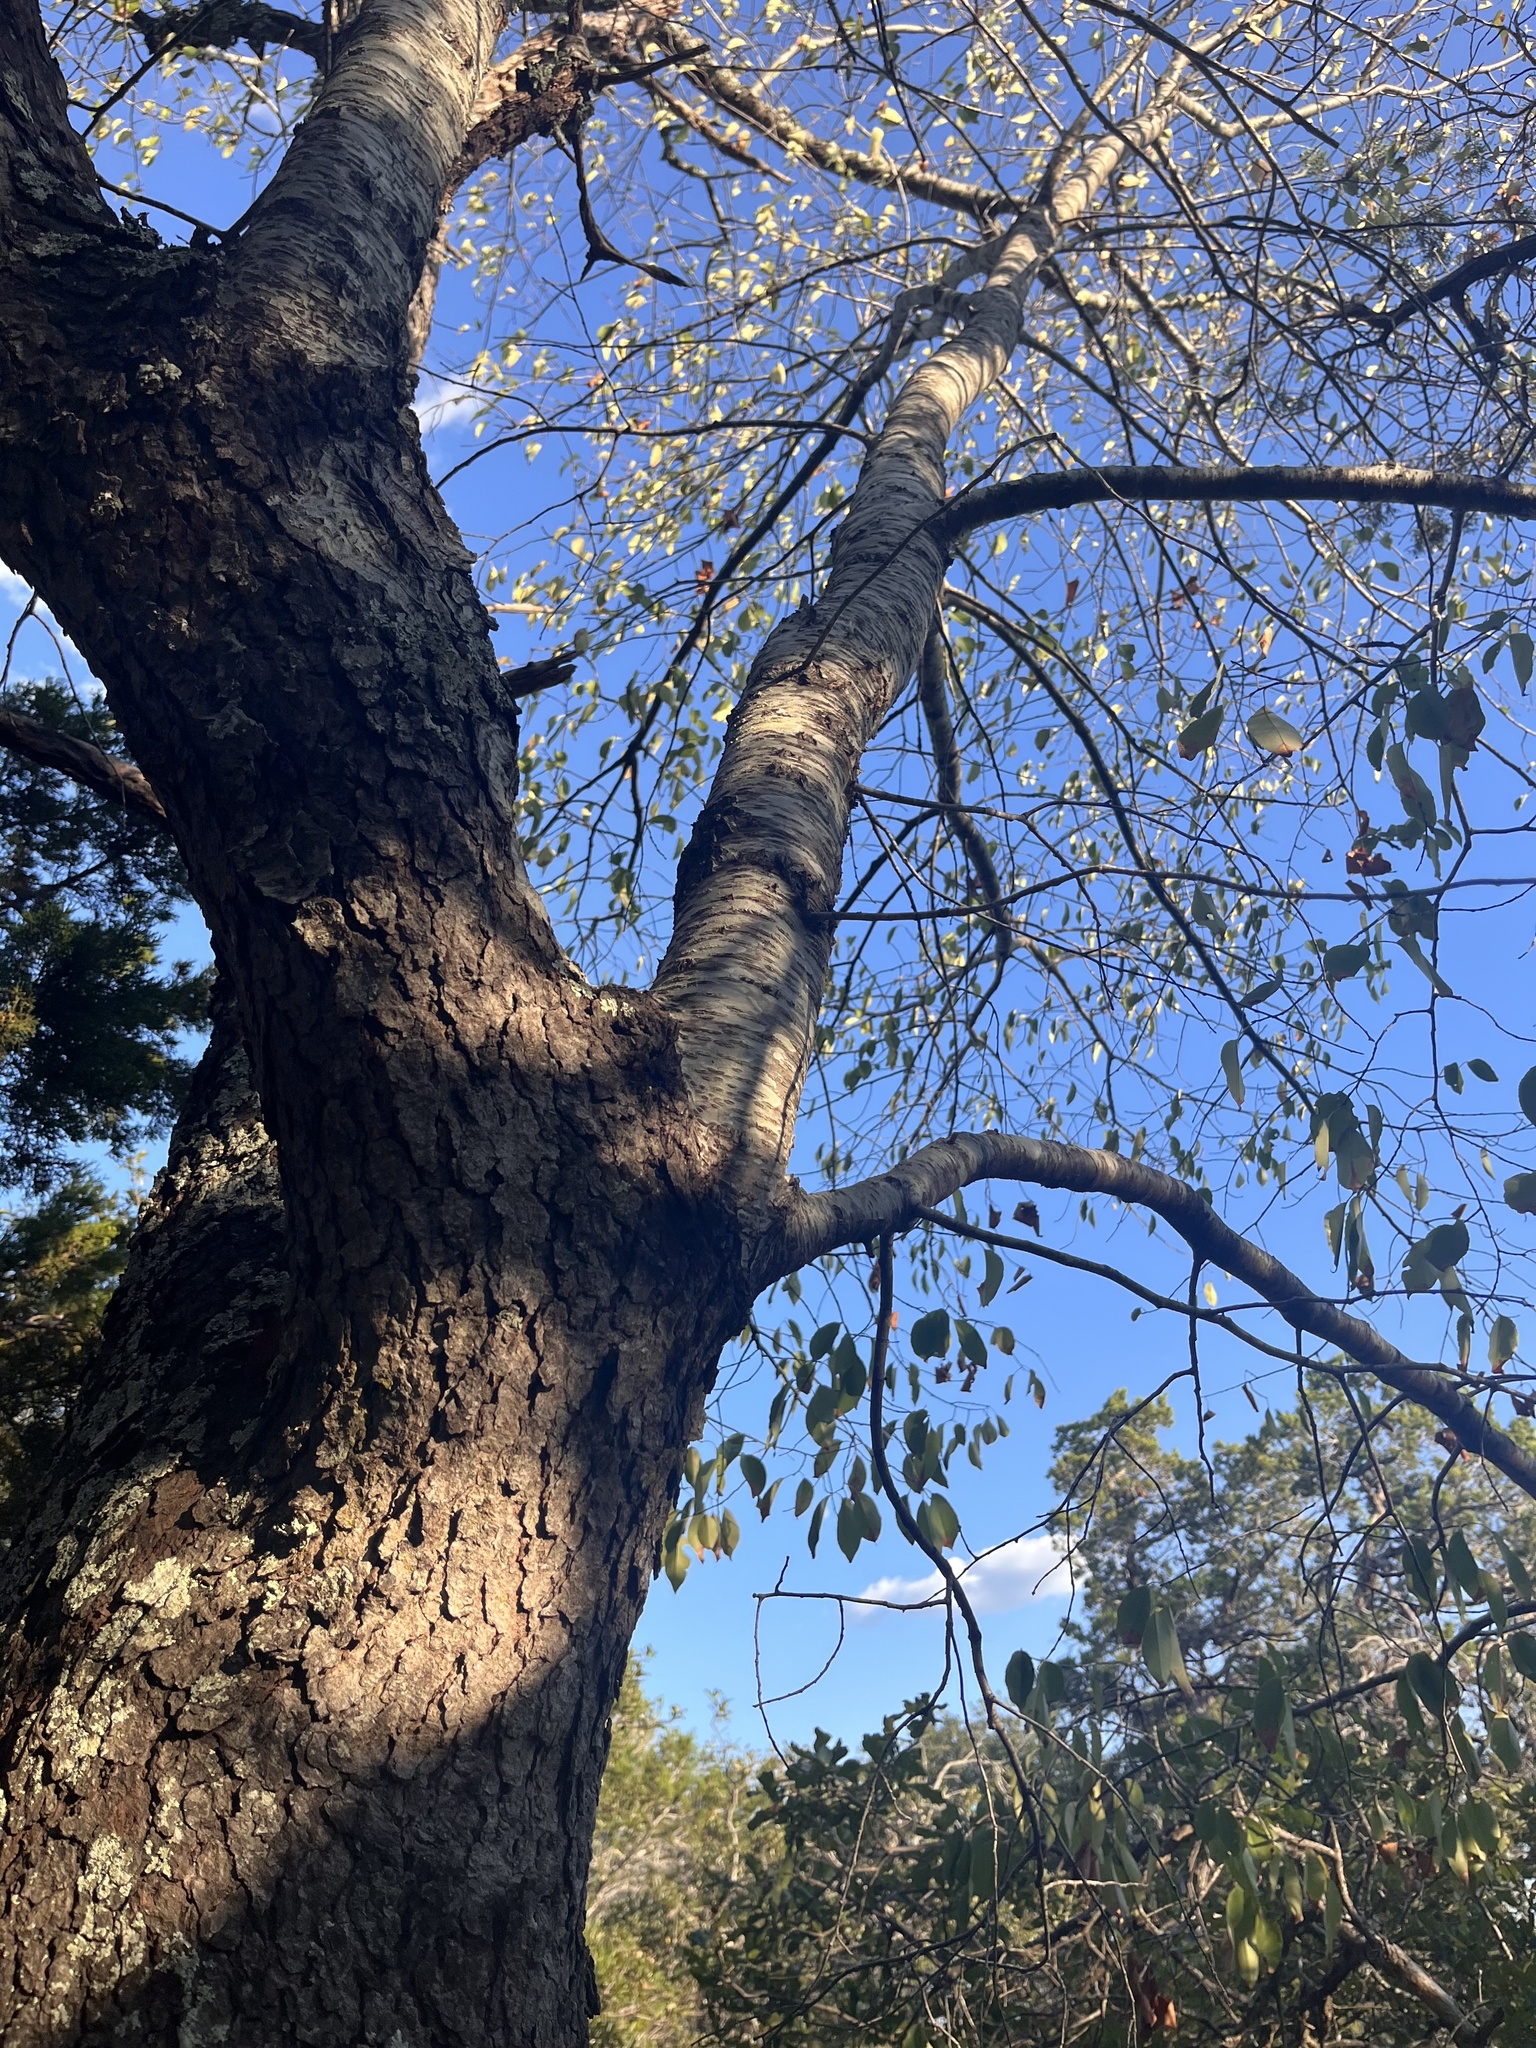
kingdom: Plantae
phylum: Tracheophyta
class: Magnoliopsida
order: Rosales
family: Rosaceae
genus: Prunus
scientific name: Prunus serotina
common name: Black cherry
